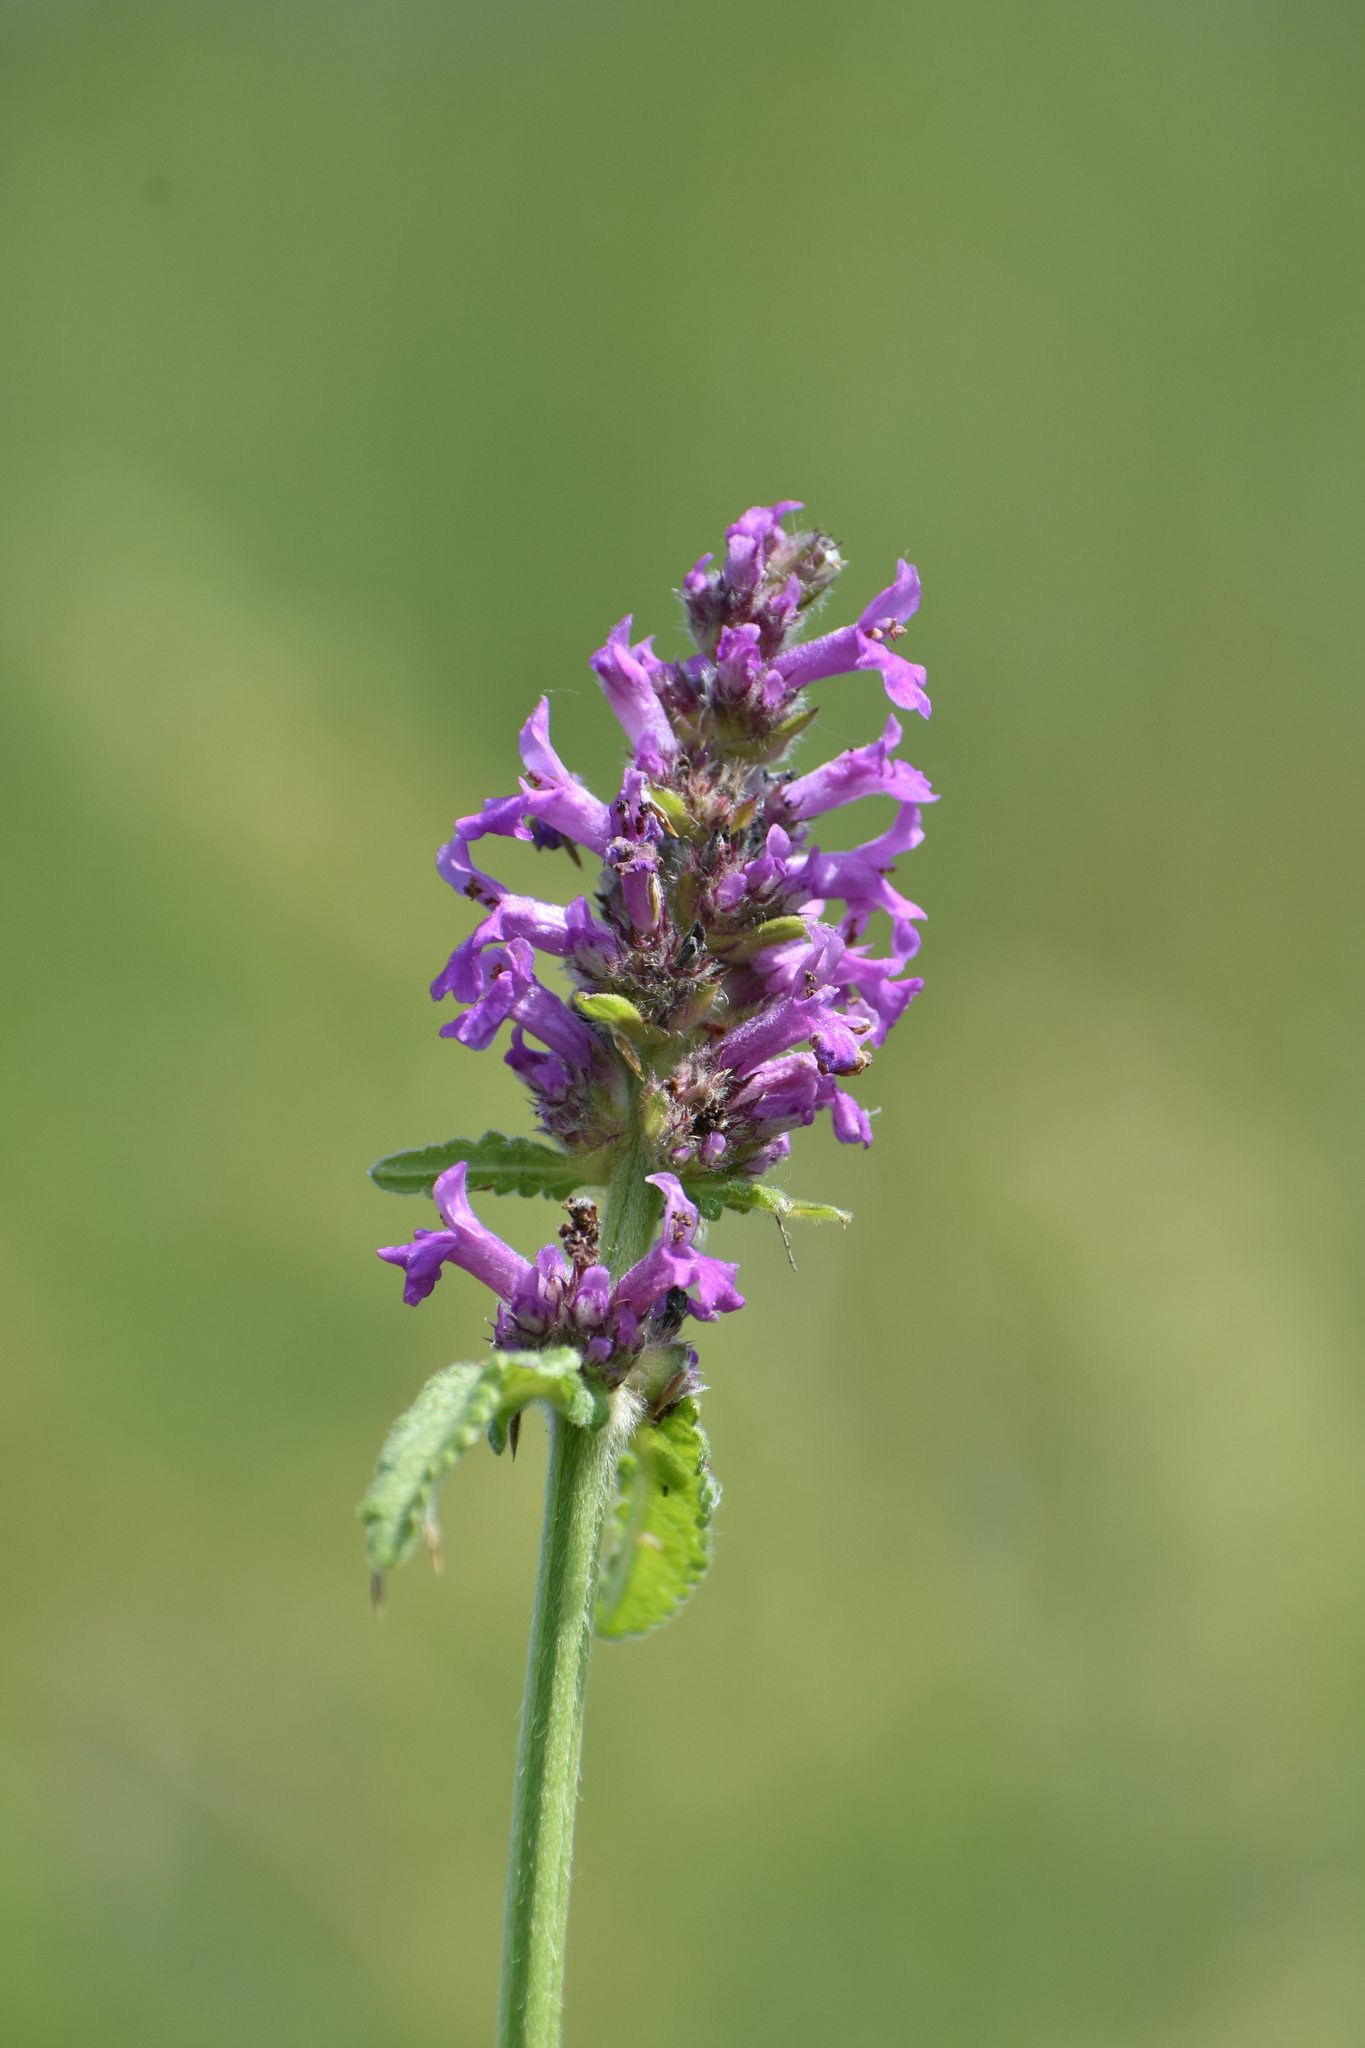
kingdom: Plantae
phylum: Tracheophyta
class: Magnoliopsida
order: Lamiales
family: Lamiaceae
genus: Betonica
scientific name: Betonica officinalis
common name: Bishop's-wort
